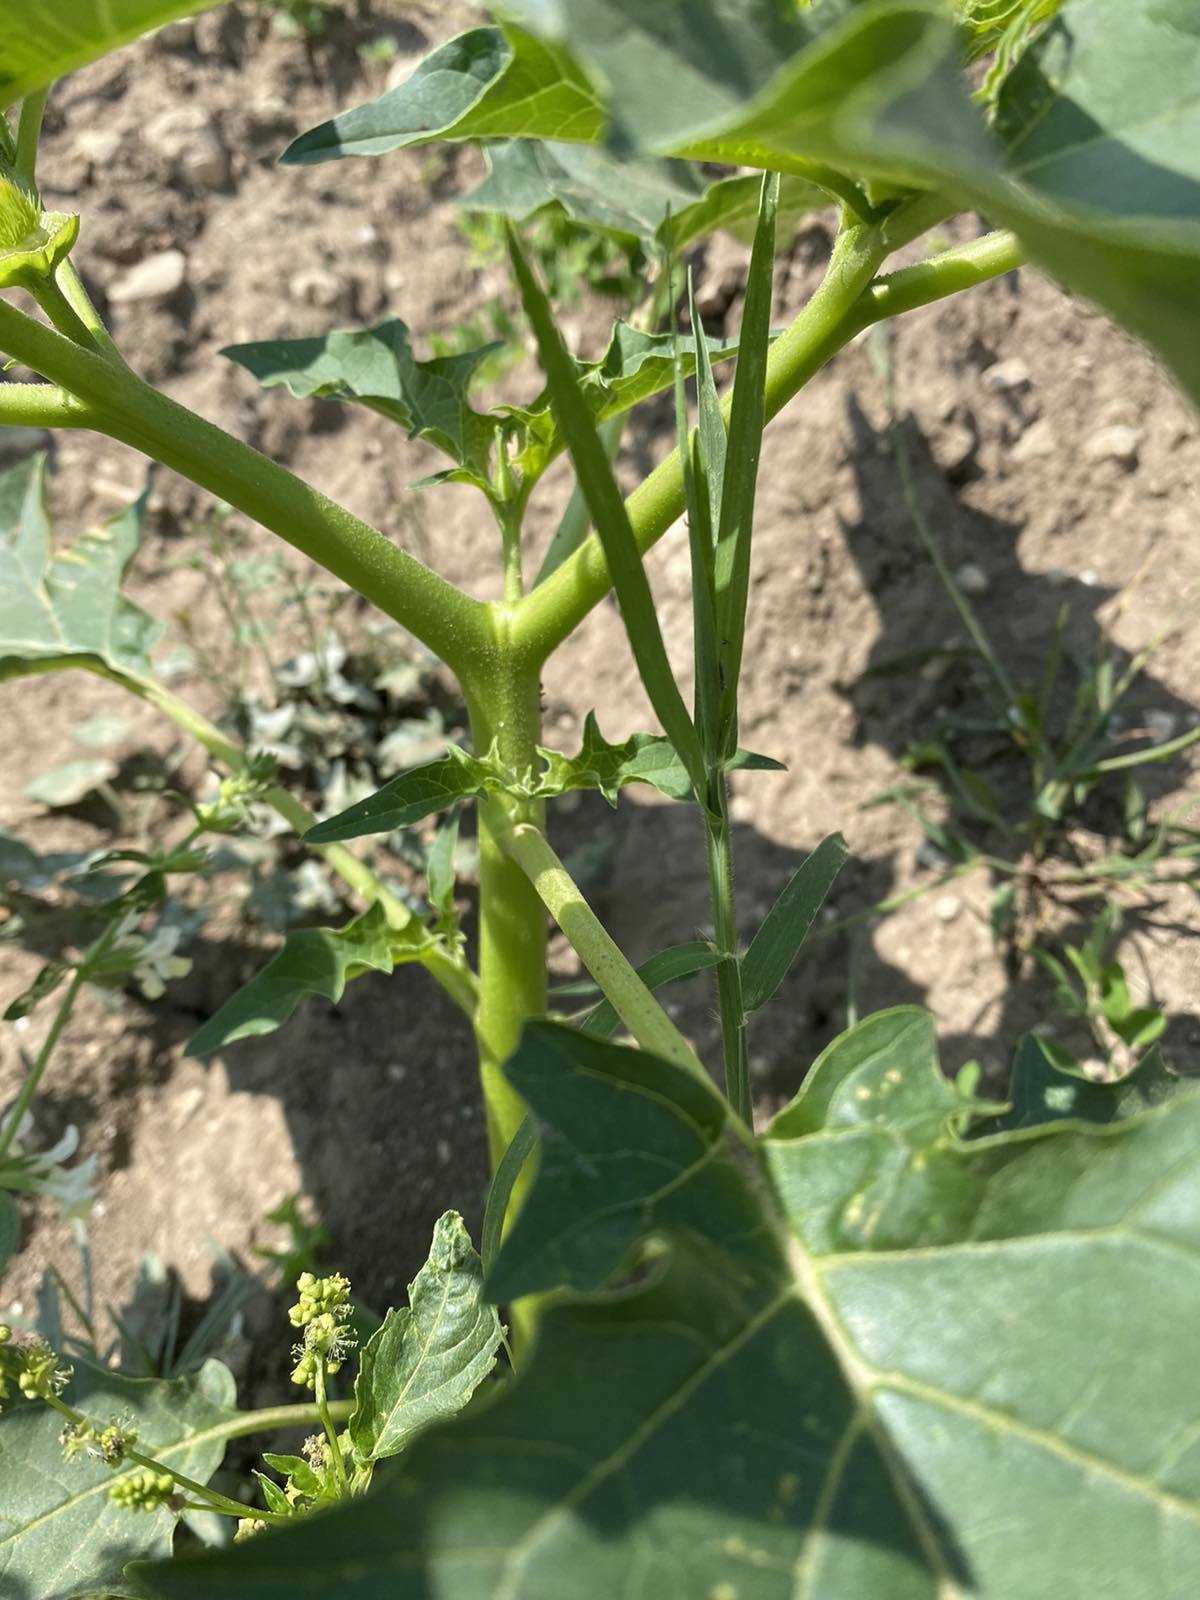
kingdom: Plantae
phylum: Tracheophyta
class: Magnoliopsida
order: Solanales
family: Solanaceae
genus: Datura
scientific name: Datura stramonium
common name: Thorn-apple
